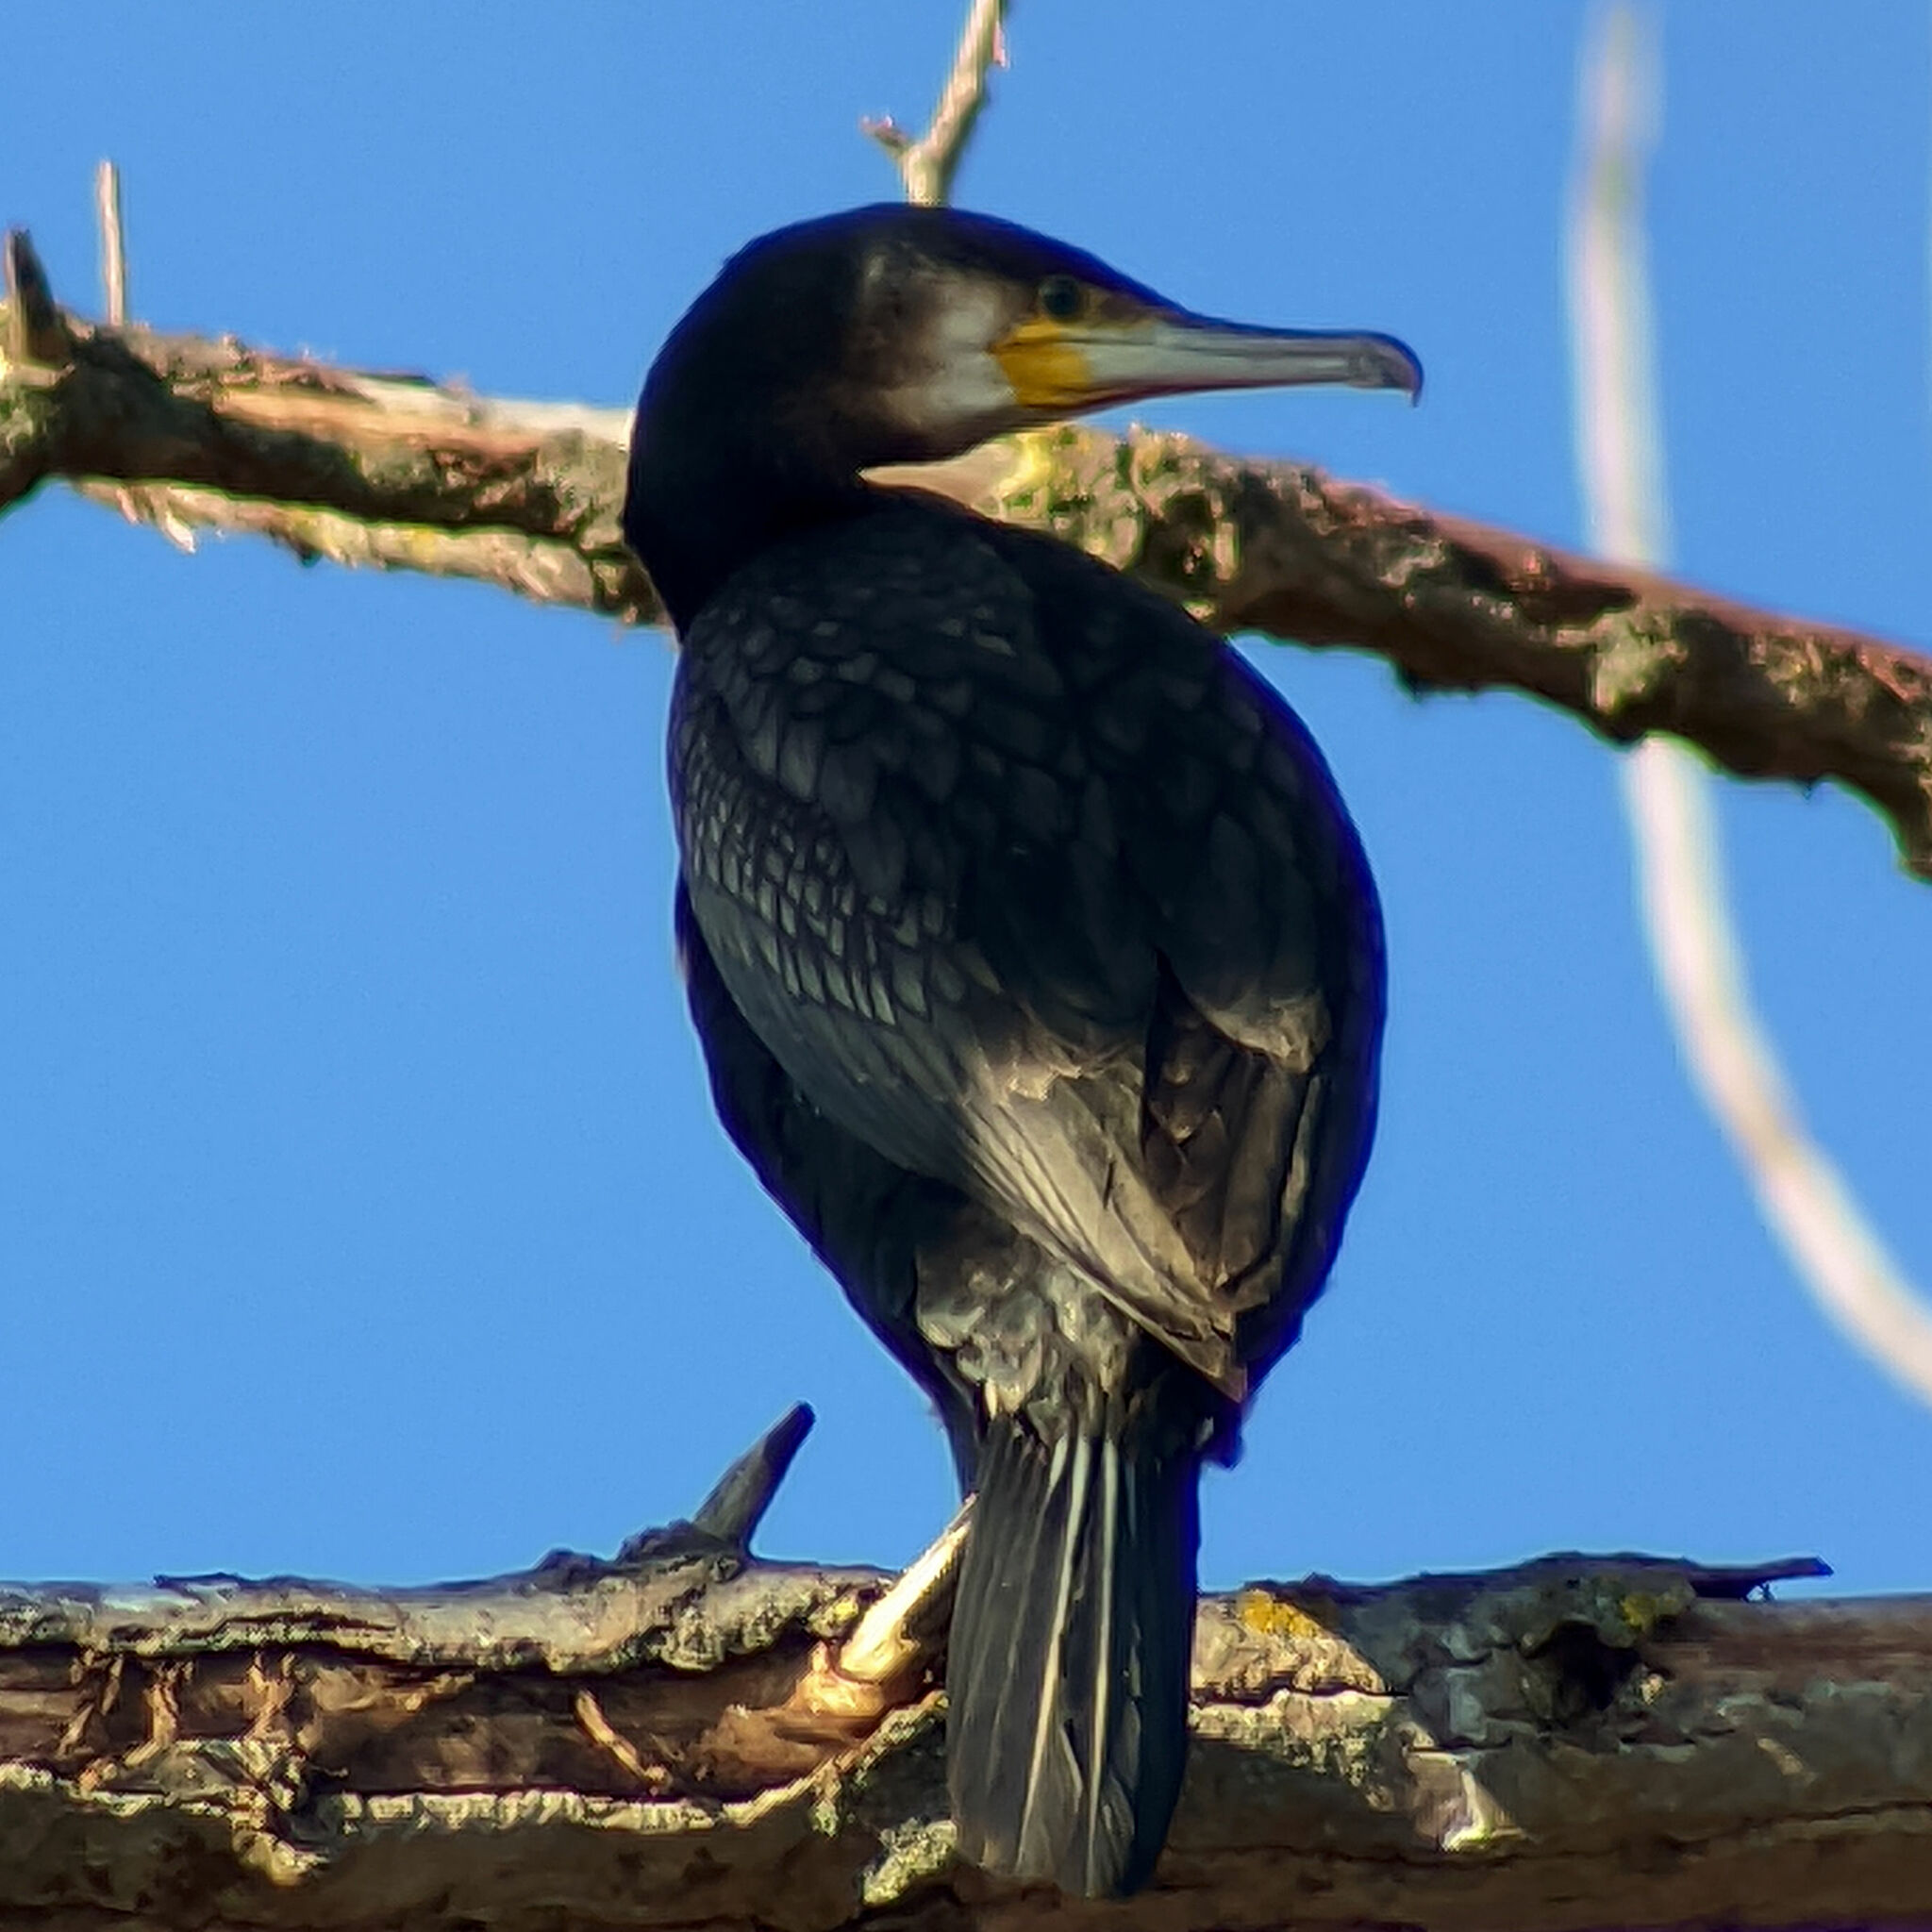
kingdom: Animalia
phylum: Chordata
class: Aves
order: Suliformes
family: Phalacrocoracidae
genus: Phalacrocorax
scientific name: Phalacrocorax carbo
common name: Great cormorant
